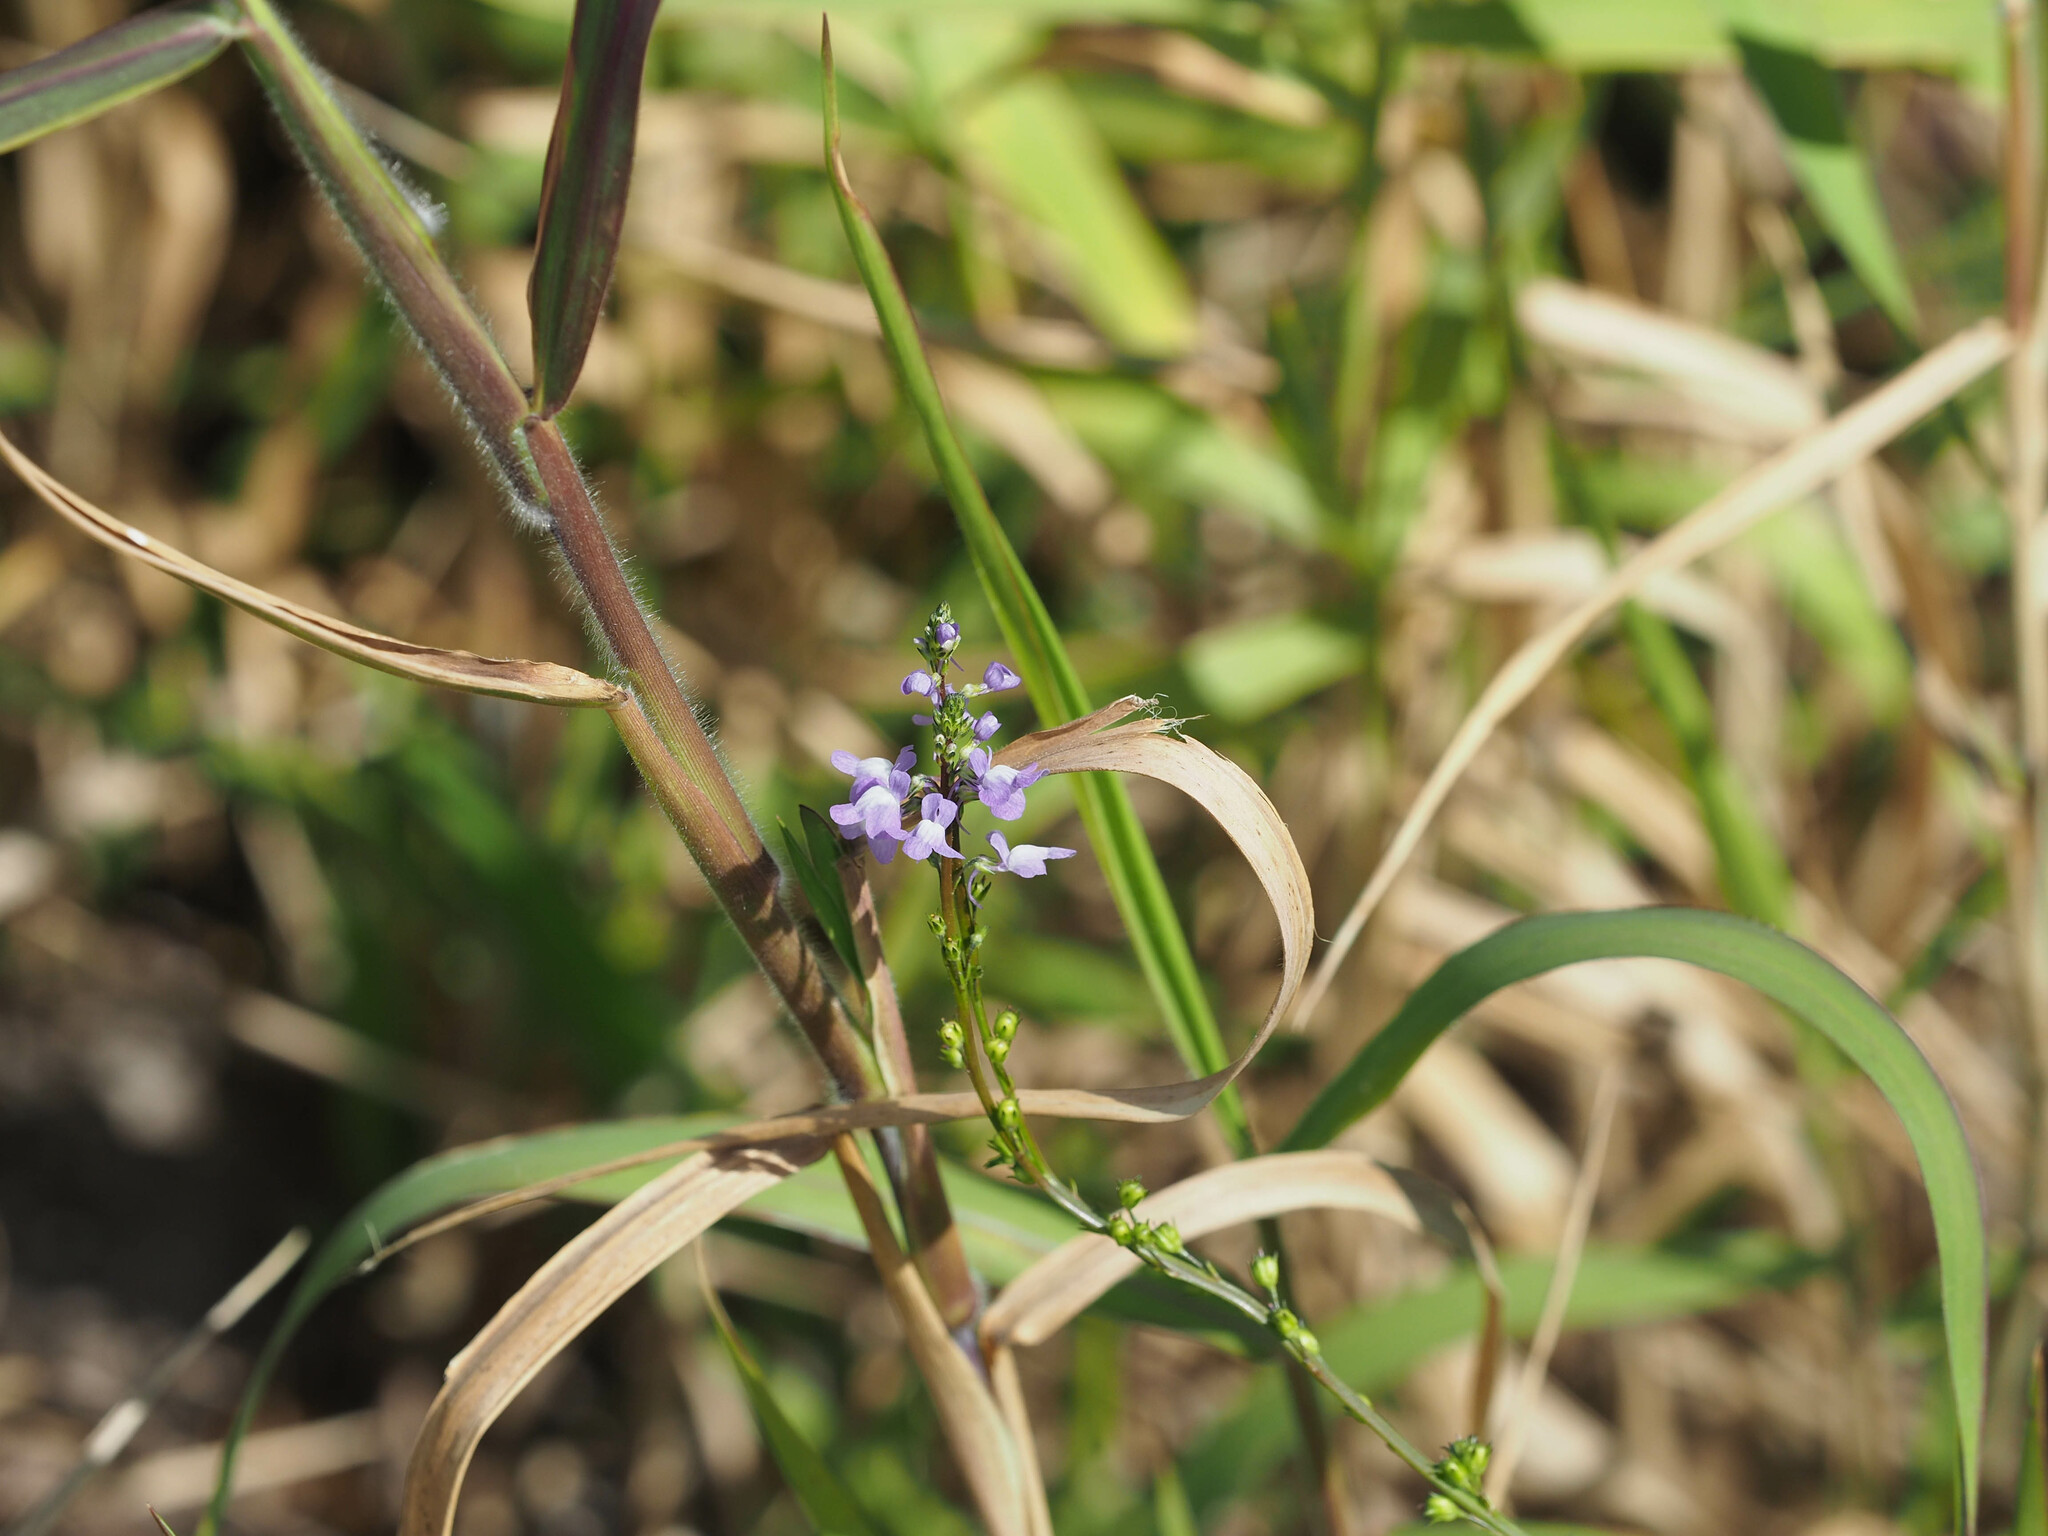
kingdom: Plantae
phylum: Tracheophyta
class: Magnoliopsida
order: Lamiales
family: Plantaginaceae
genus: Nuttallanthus
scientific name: Nuttallanthus canadensis
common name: Blue toadflax
